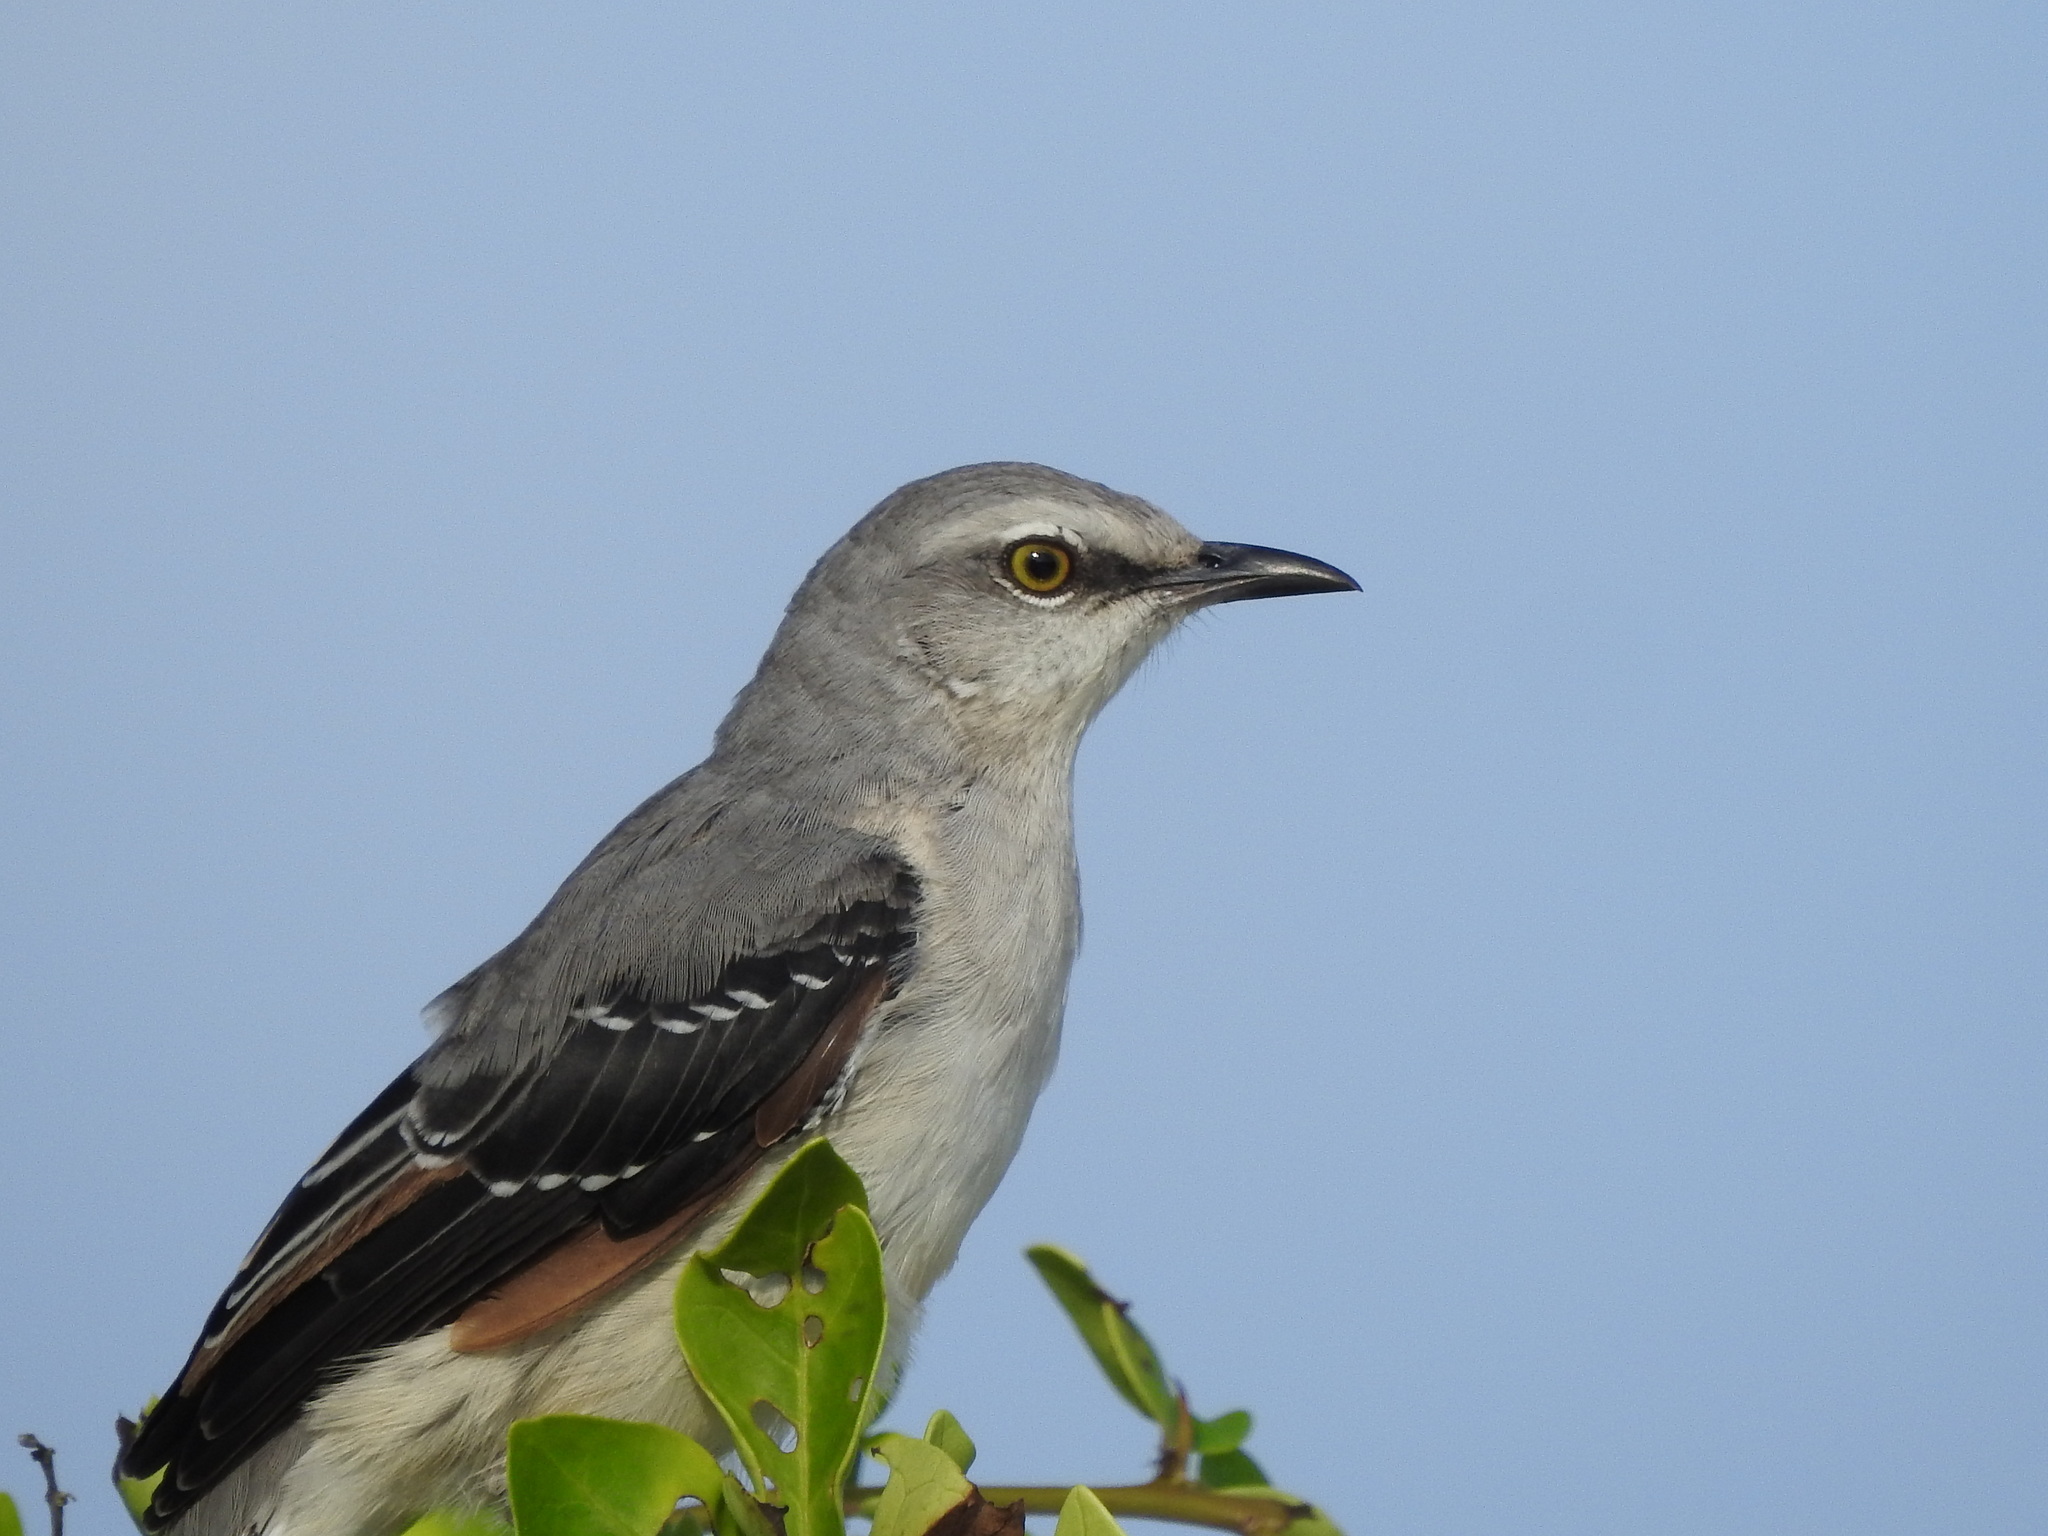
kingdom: Animalia
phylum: Chordata
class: Aves
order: Passeriformes
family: Mimidae
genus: Mimus
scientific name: Mimus gilvus
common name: Tropical mockingbird
